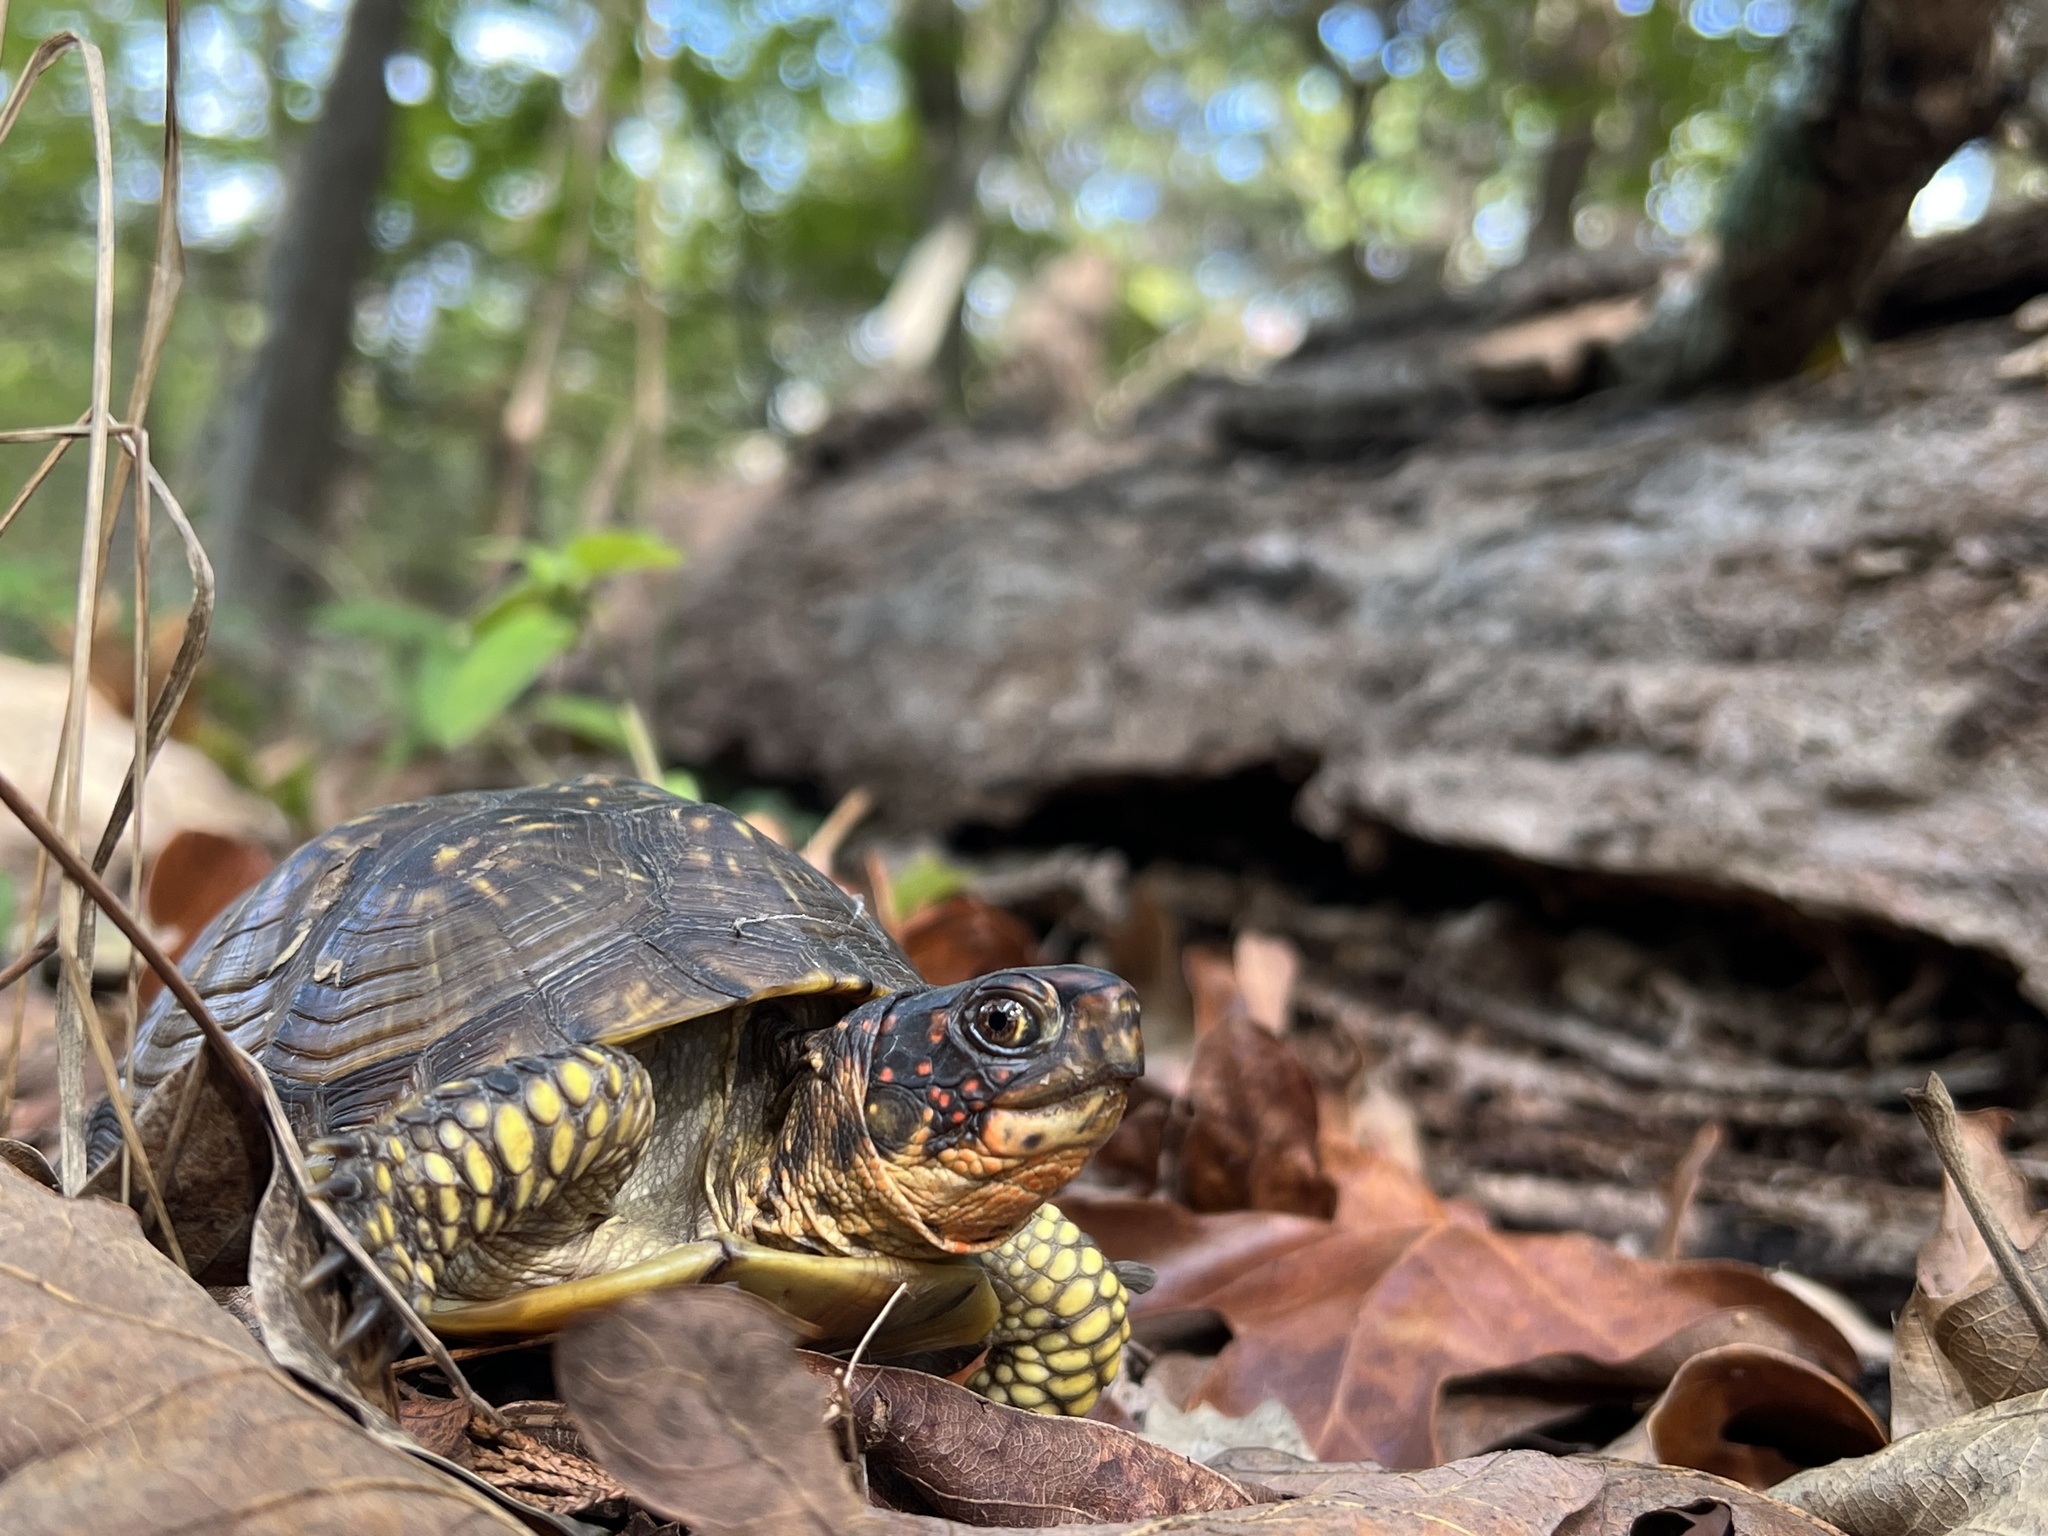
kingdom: Animalia
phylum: Chordata
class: Testudines
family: Emydidae
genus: Terrapene
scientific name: Terrapene carolina
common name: Common box turtle
